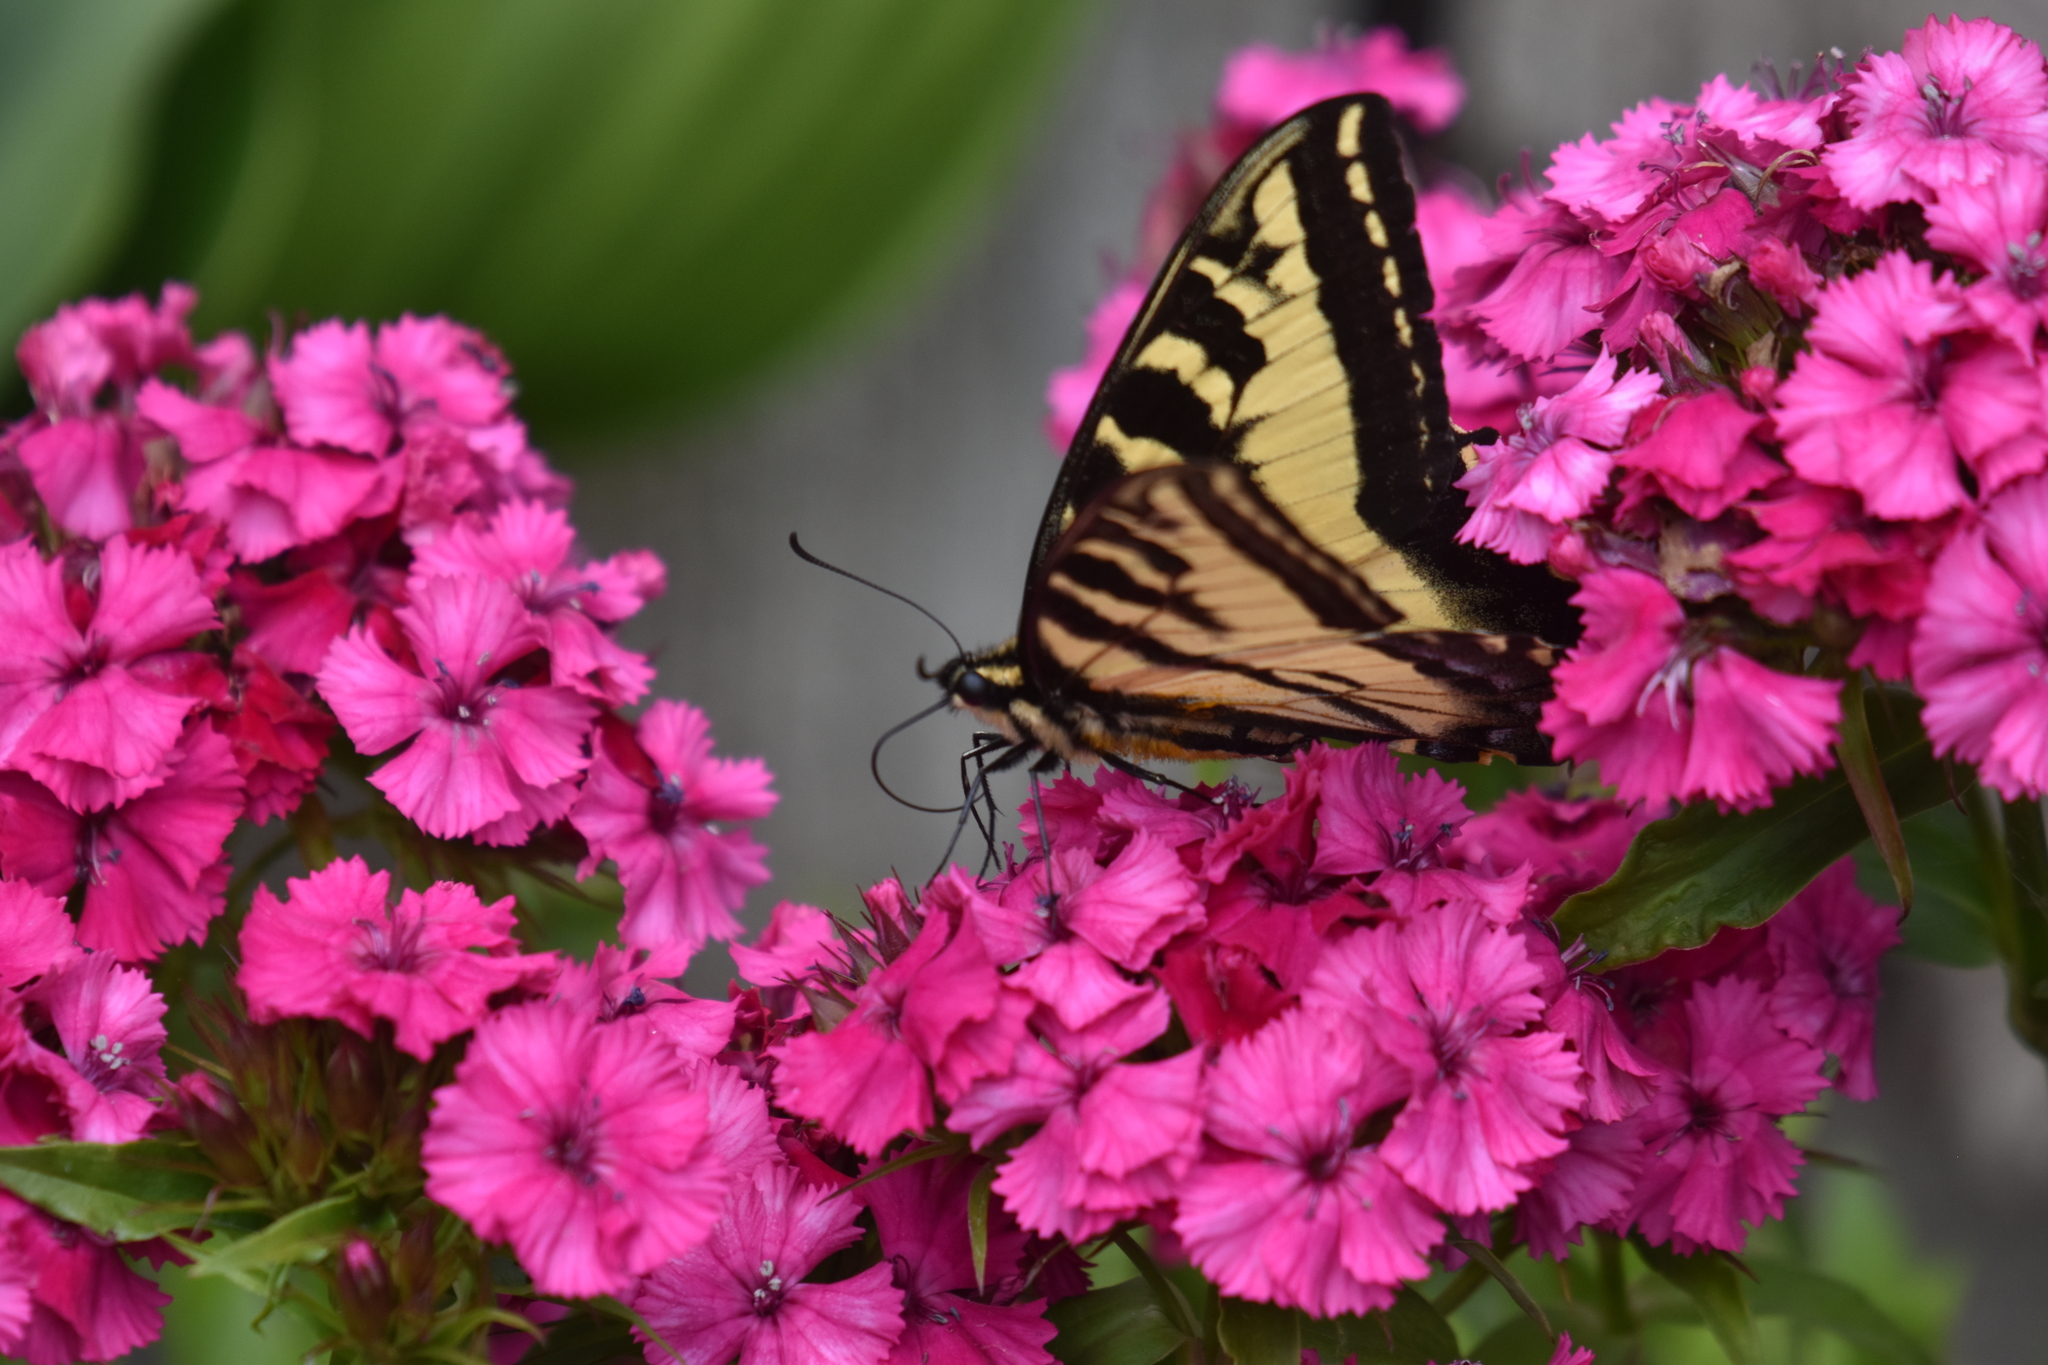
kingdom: Animalia
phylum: Arthropoda
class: Insecta
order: Lepidoptera
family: Papilionidae
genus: Papilio
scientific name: Papilio rutulus
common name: Western tiger swallowtail
